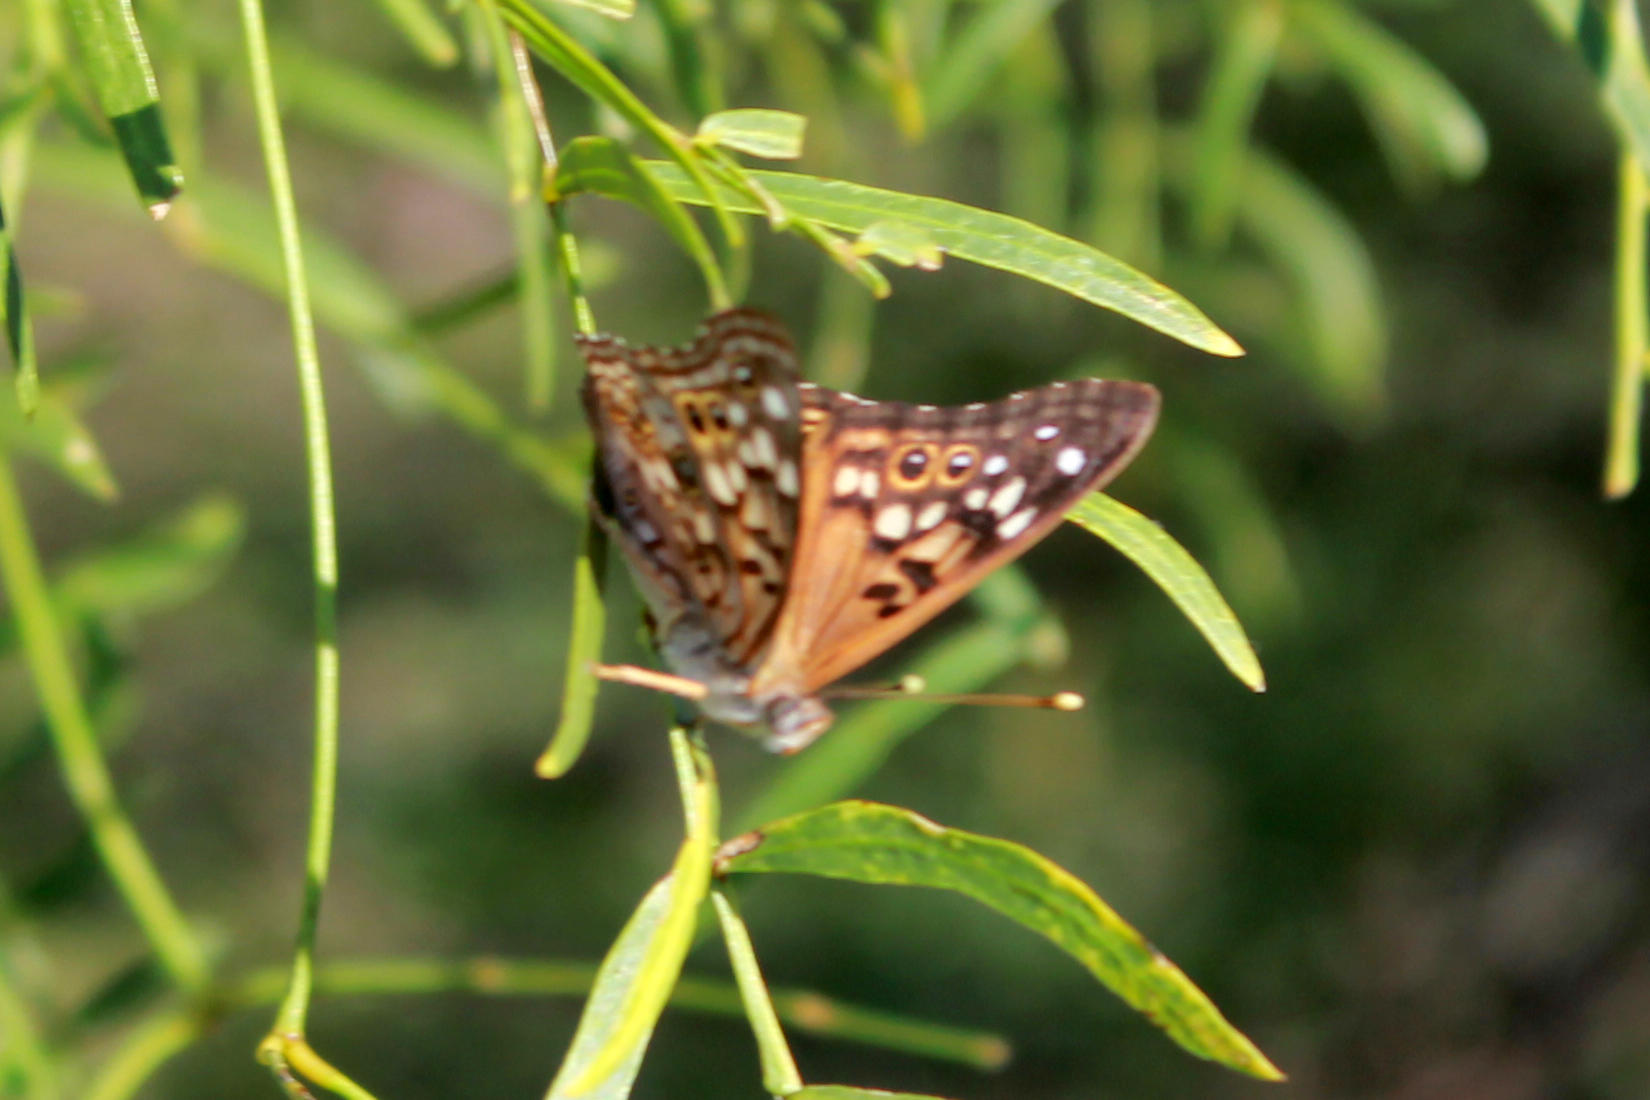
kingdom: Animalia
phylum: Arthropoda
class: Insecta
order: Lepidoptera
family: Nymphalidae
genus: Asterocampa
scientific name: Asterocampa celtis
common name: Hackberry emperor
